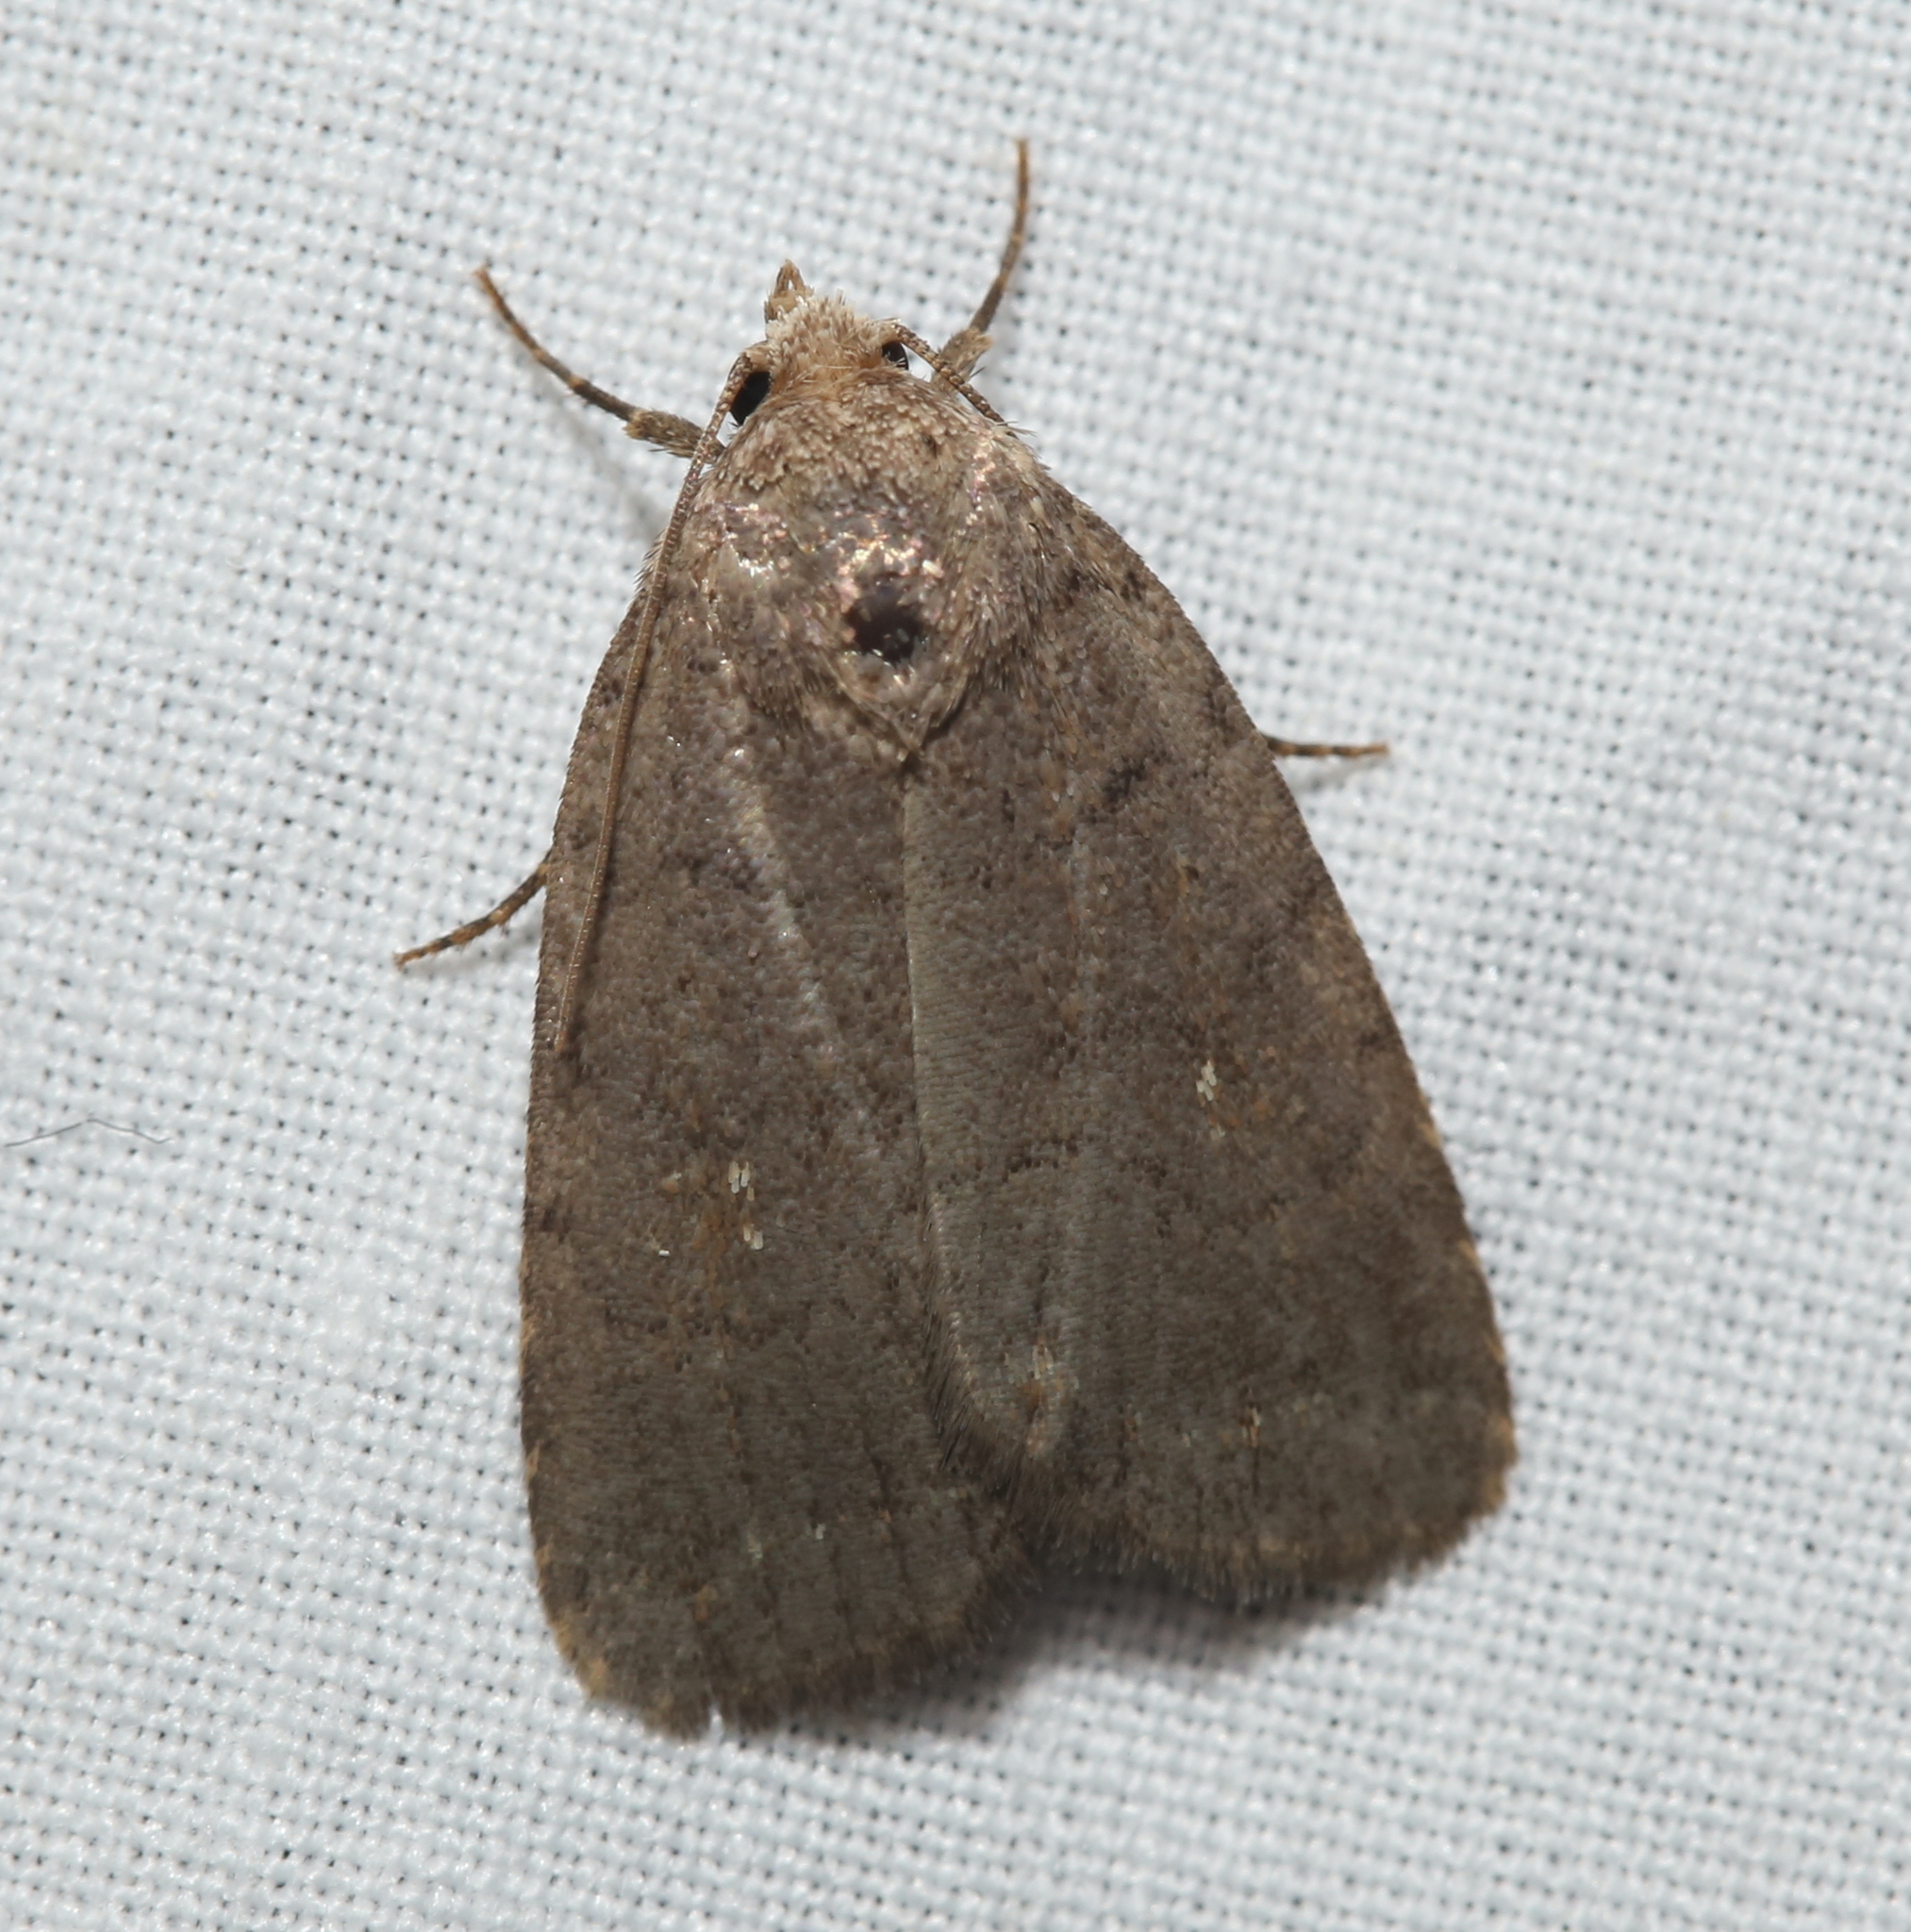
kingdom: Animalia
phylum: Arthropoda
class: Insecta
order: Lepidoptera
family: Noctuidae
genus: Athetis
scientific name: Athetis tarda
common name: Slowpoke moth
